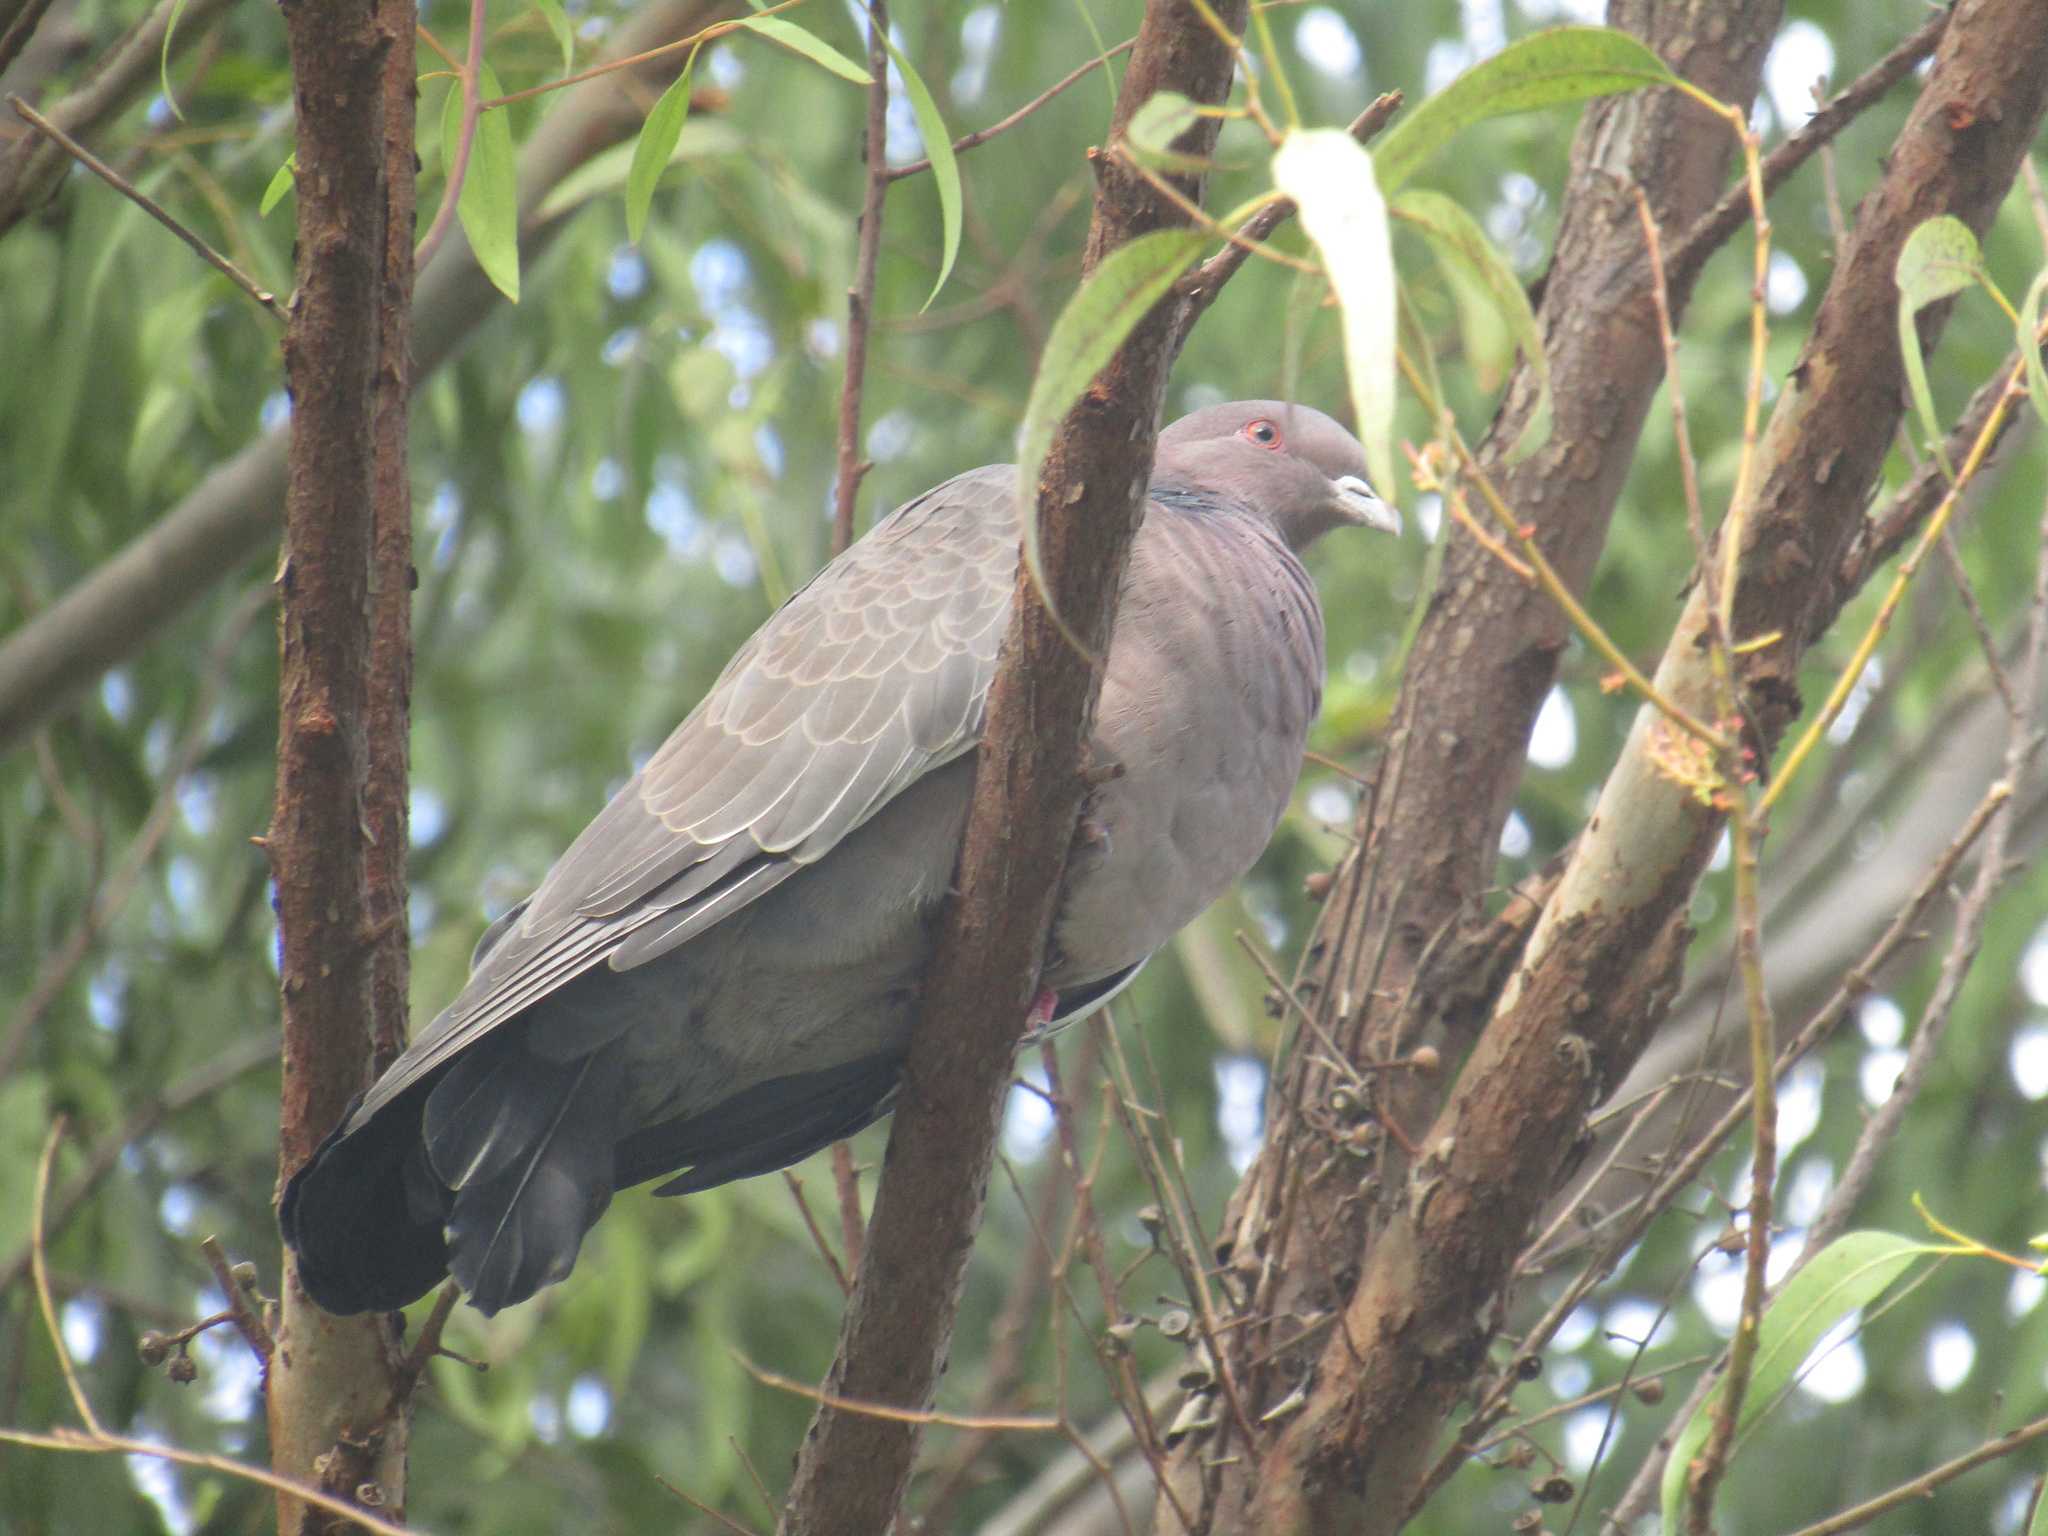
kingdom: Animalia
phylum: Chordata
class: Aves
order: Columbiformes
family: Columbidae
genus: Patagioenas
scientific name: Patagioenas picazuro
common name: Picazuro pigeon
